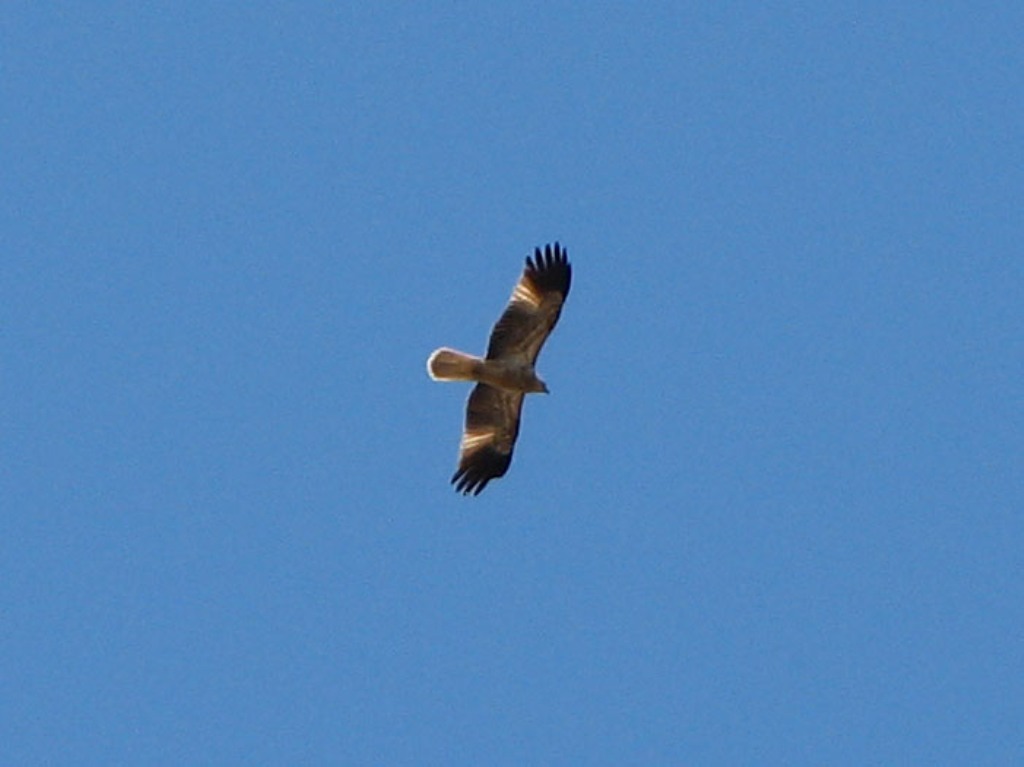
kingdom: Animalia
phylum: Chordata
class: Aves
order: Accipitriformes
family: Accipitridae
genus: Haliastur
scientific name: Haliastur sphenurus
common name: Whistling kite
